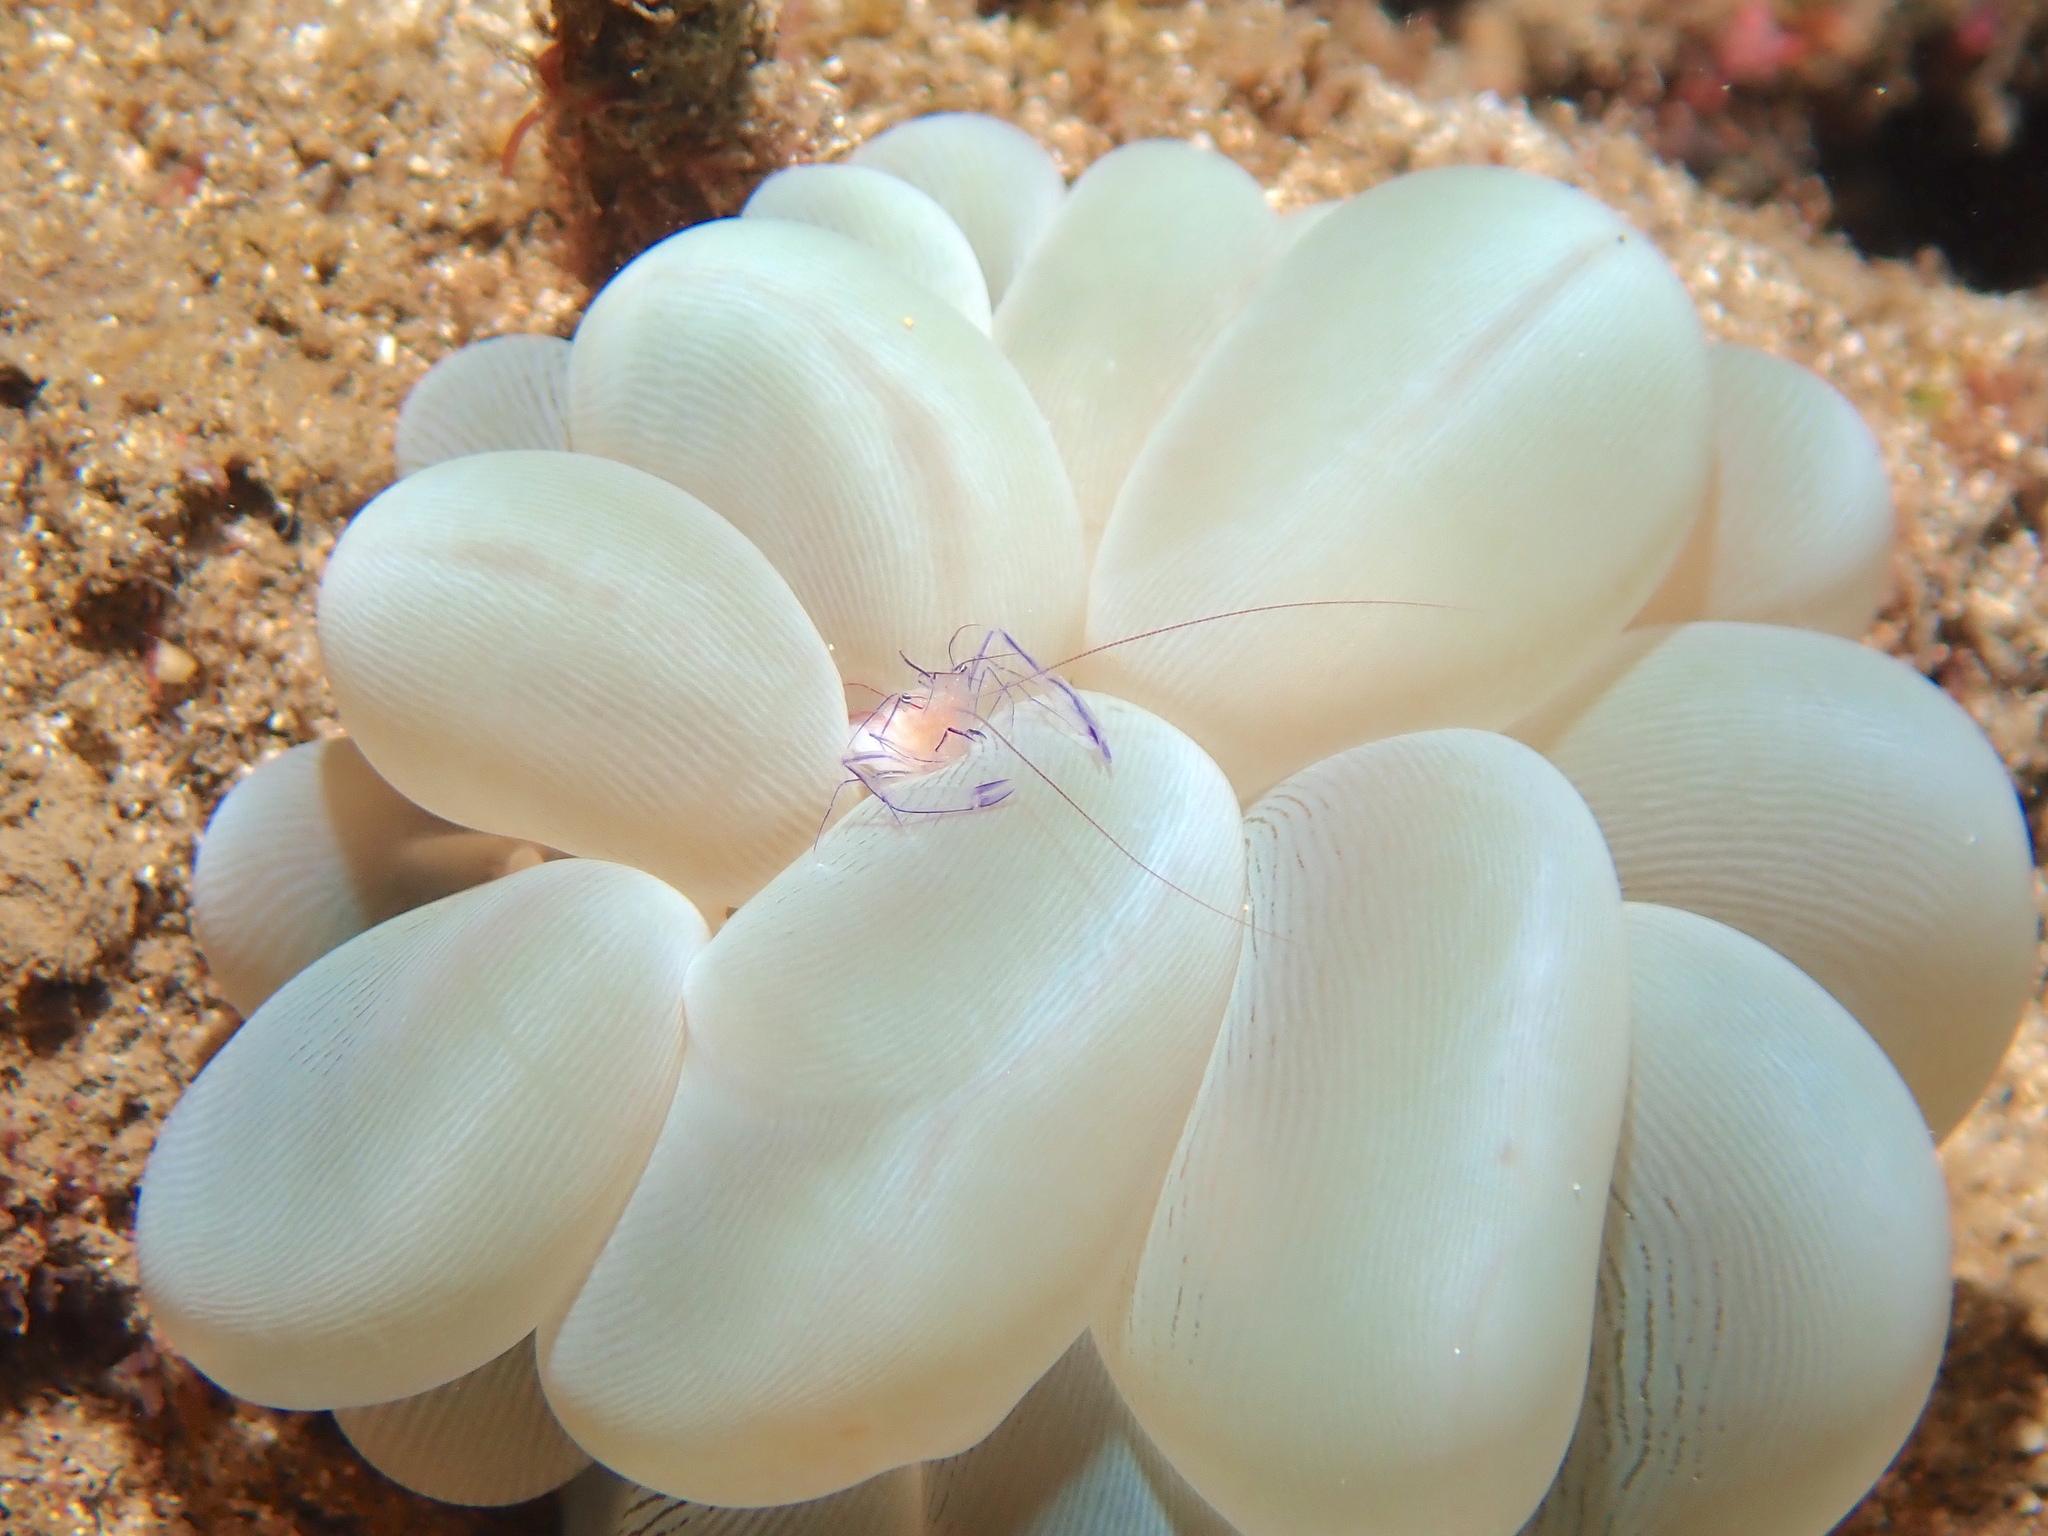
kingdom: Animalia
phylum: Cnidaria
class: Anthozoa
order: Scleractinia
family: Plerogyridae
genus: Plerogyra
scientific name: Plerogyra sinuosa
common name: Bubble coral
